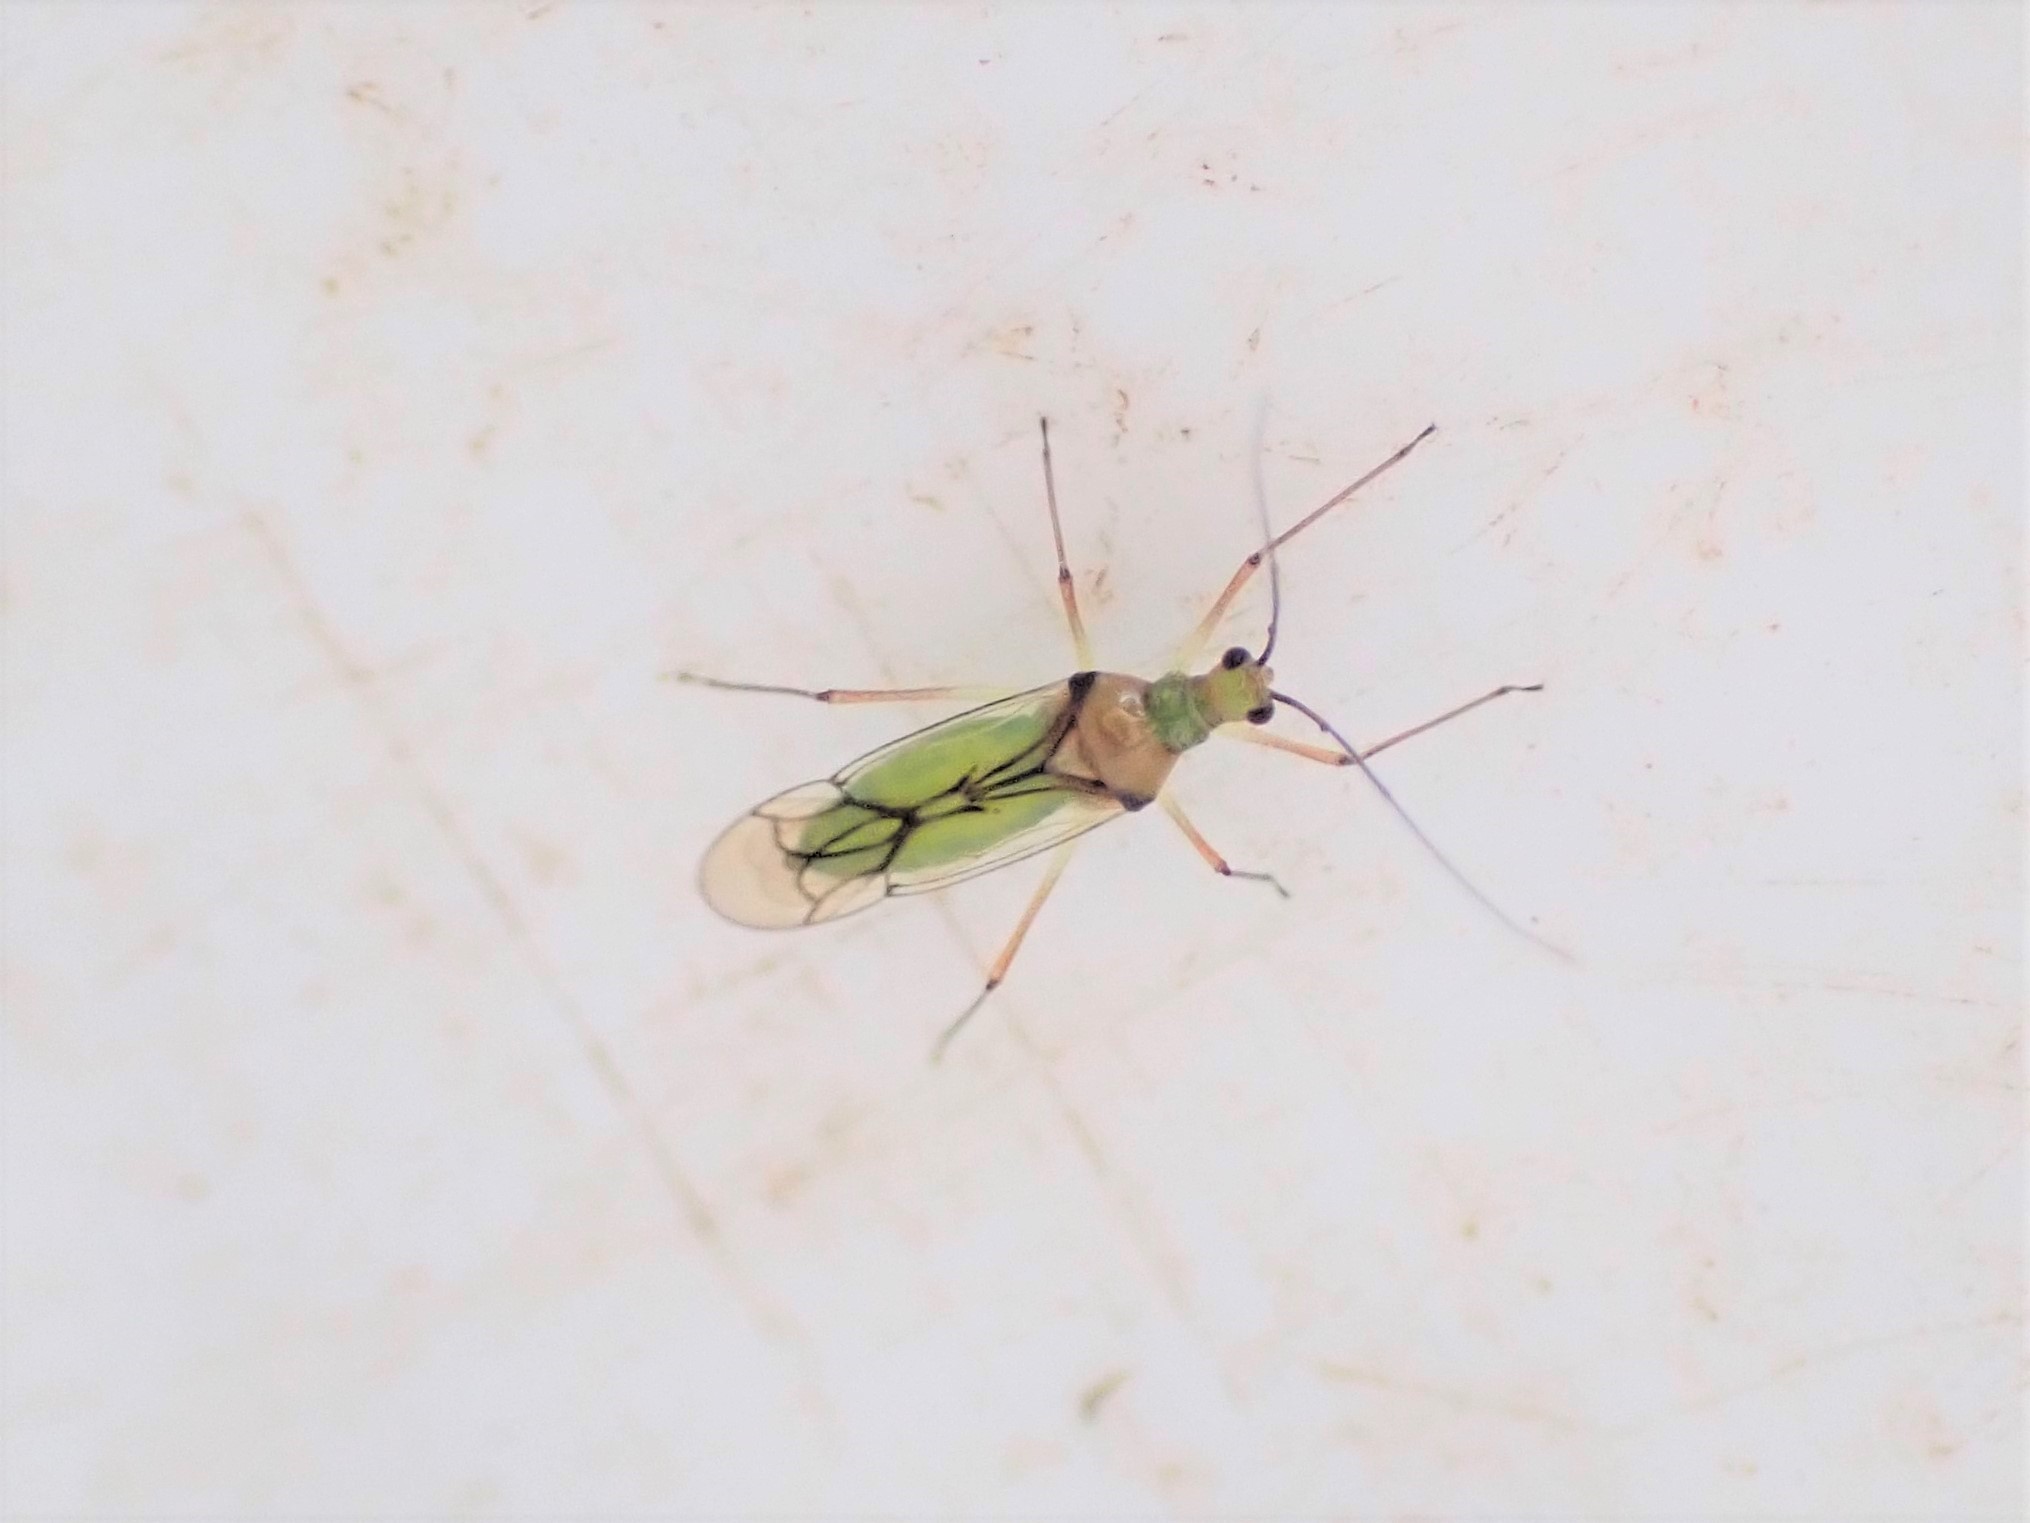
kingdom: Animalia
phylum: Arthropoda
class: Insecta
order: Hemiptera
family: Miridae
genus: Felisacus
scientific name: Felisacus elegantulus
